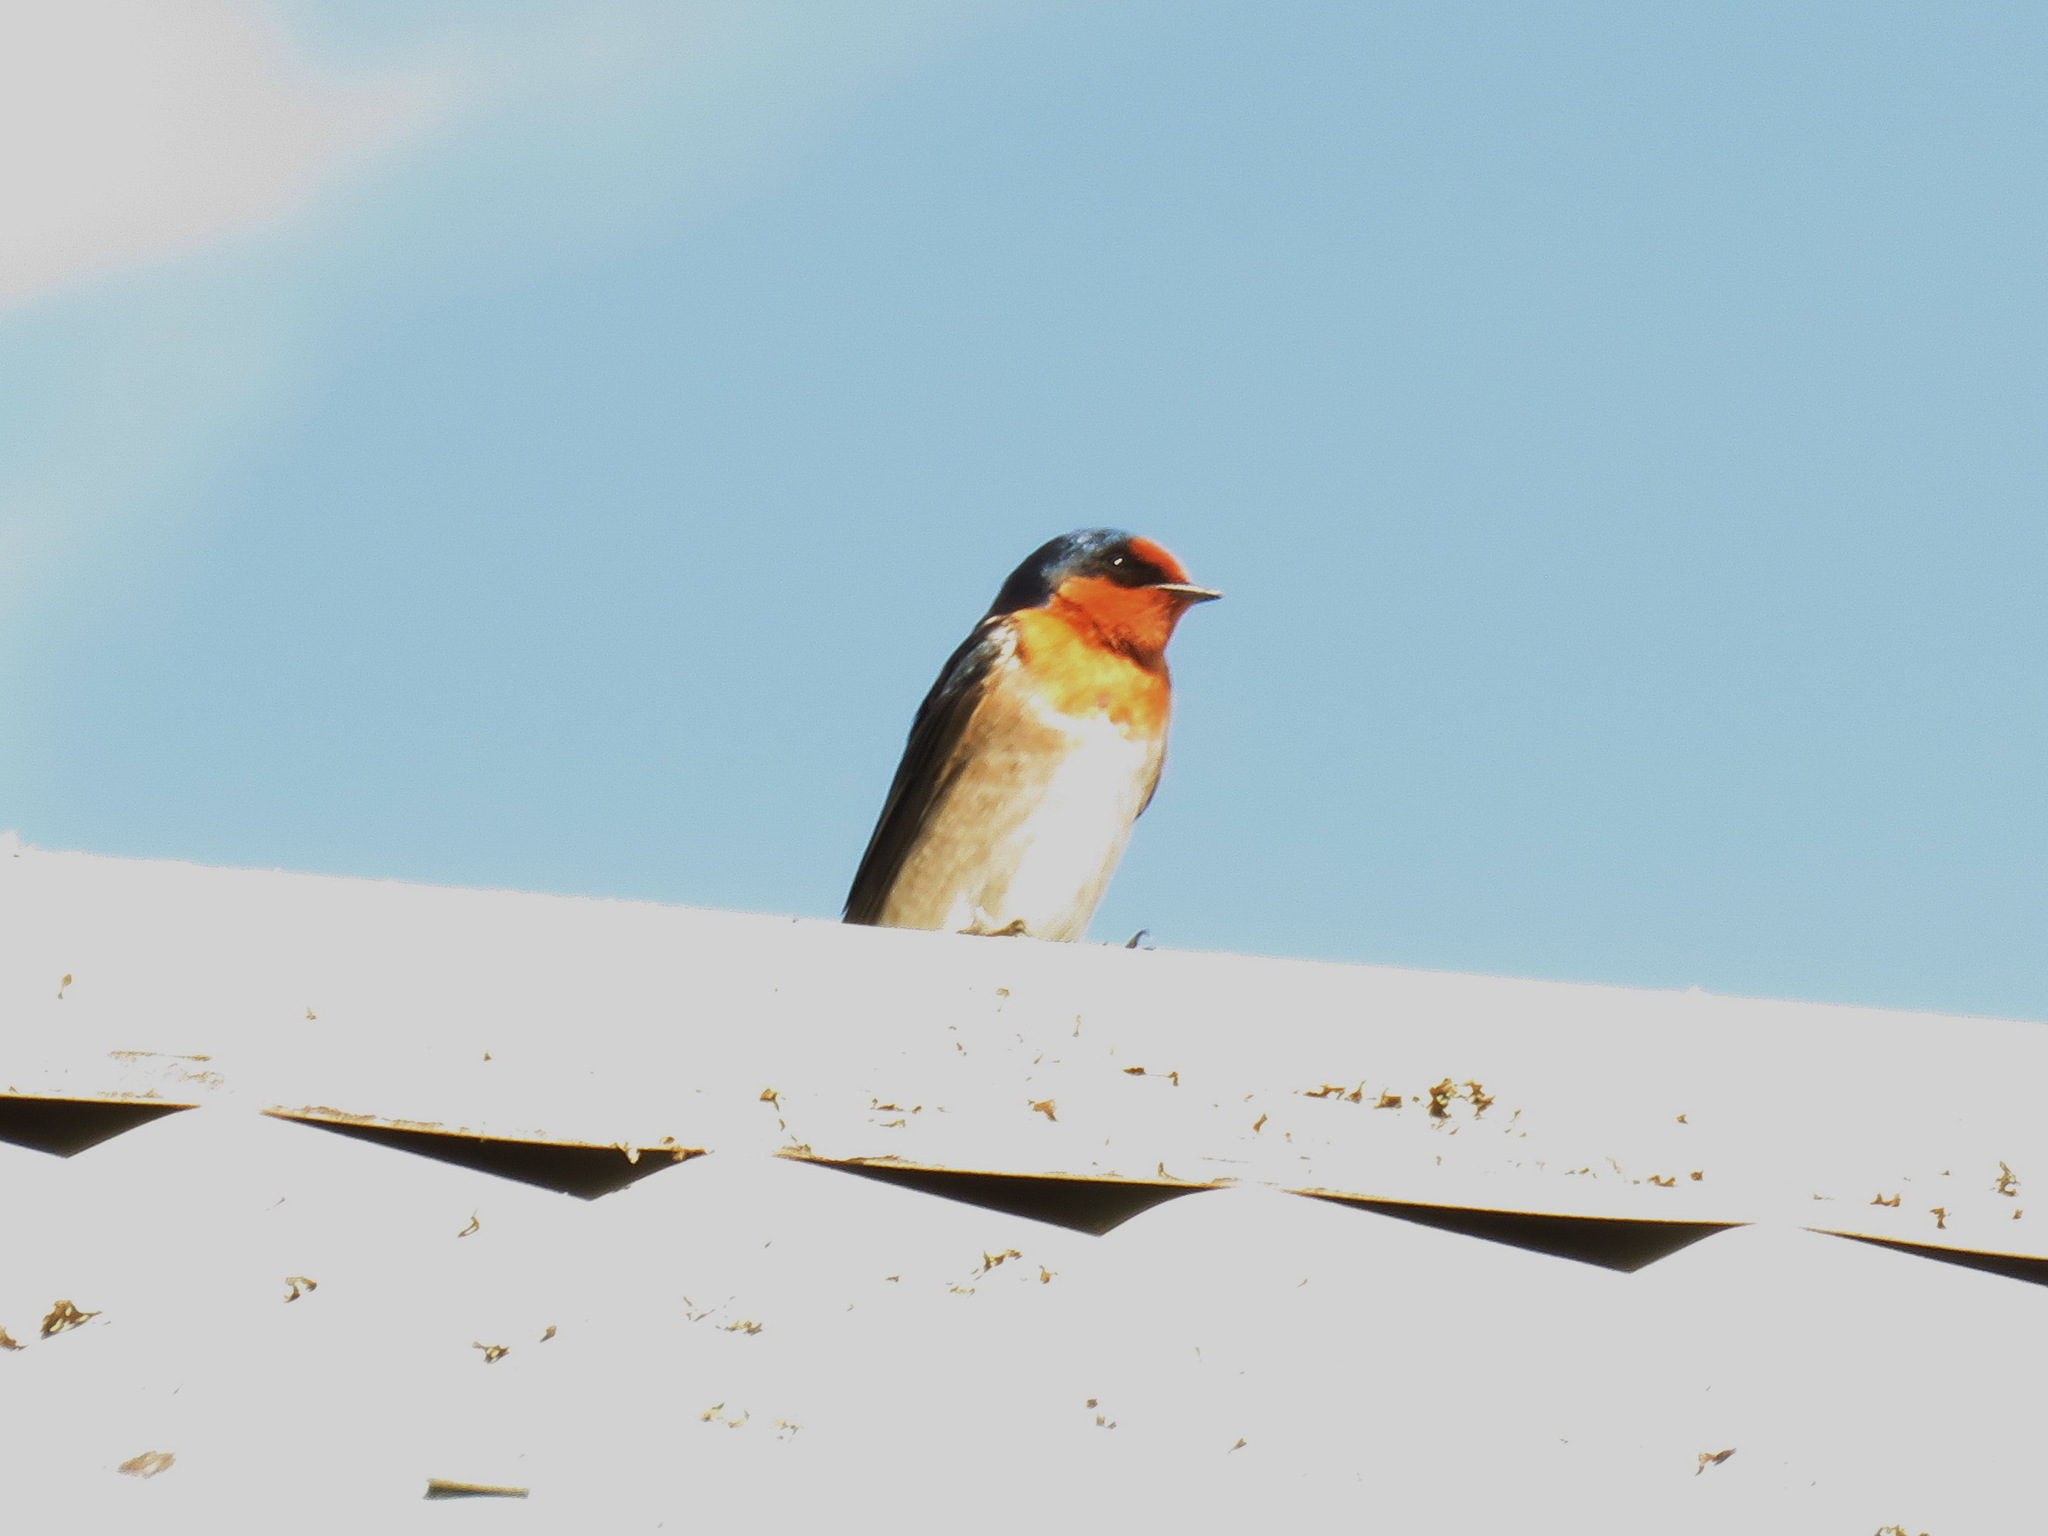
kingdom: Animalia
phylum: Chordata
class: Aves
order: Passeriformes
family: Hirundinidae
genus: Hirundo
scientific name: Hirundo neoxena
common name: Welcome swallow
